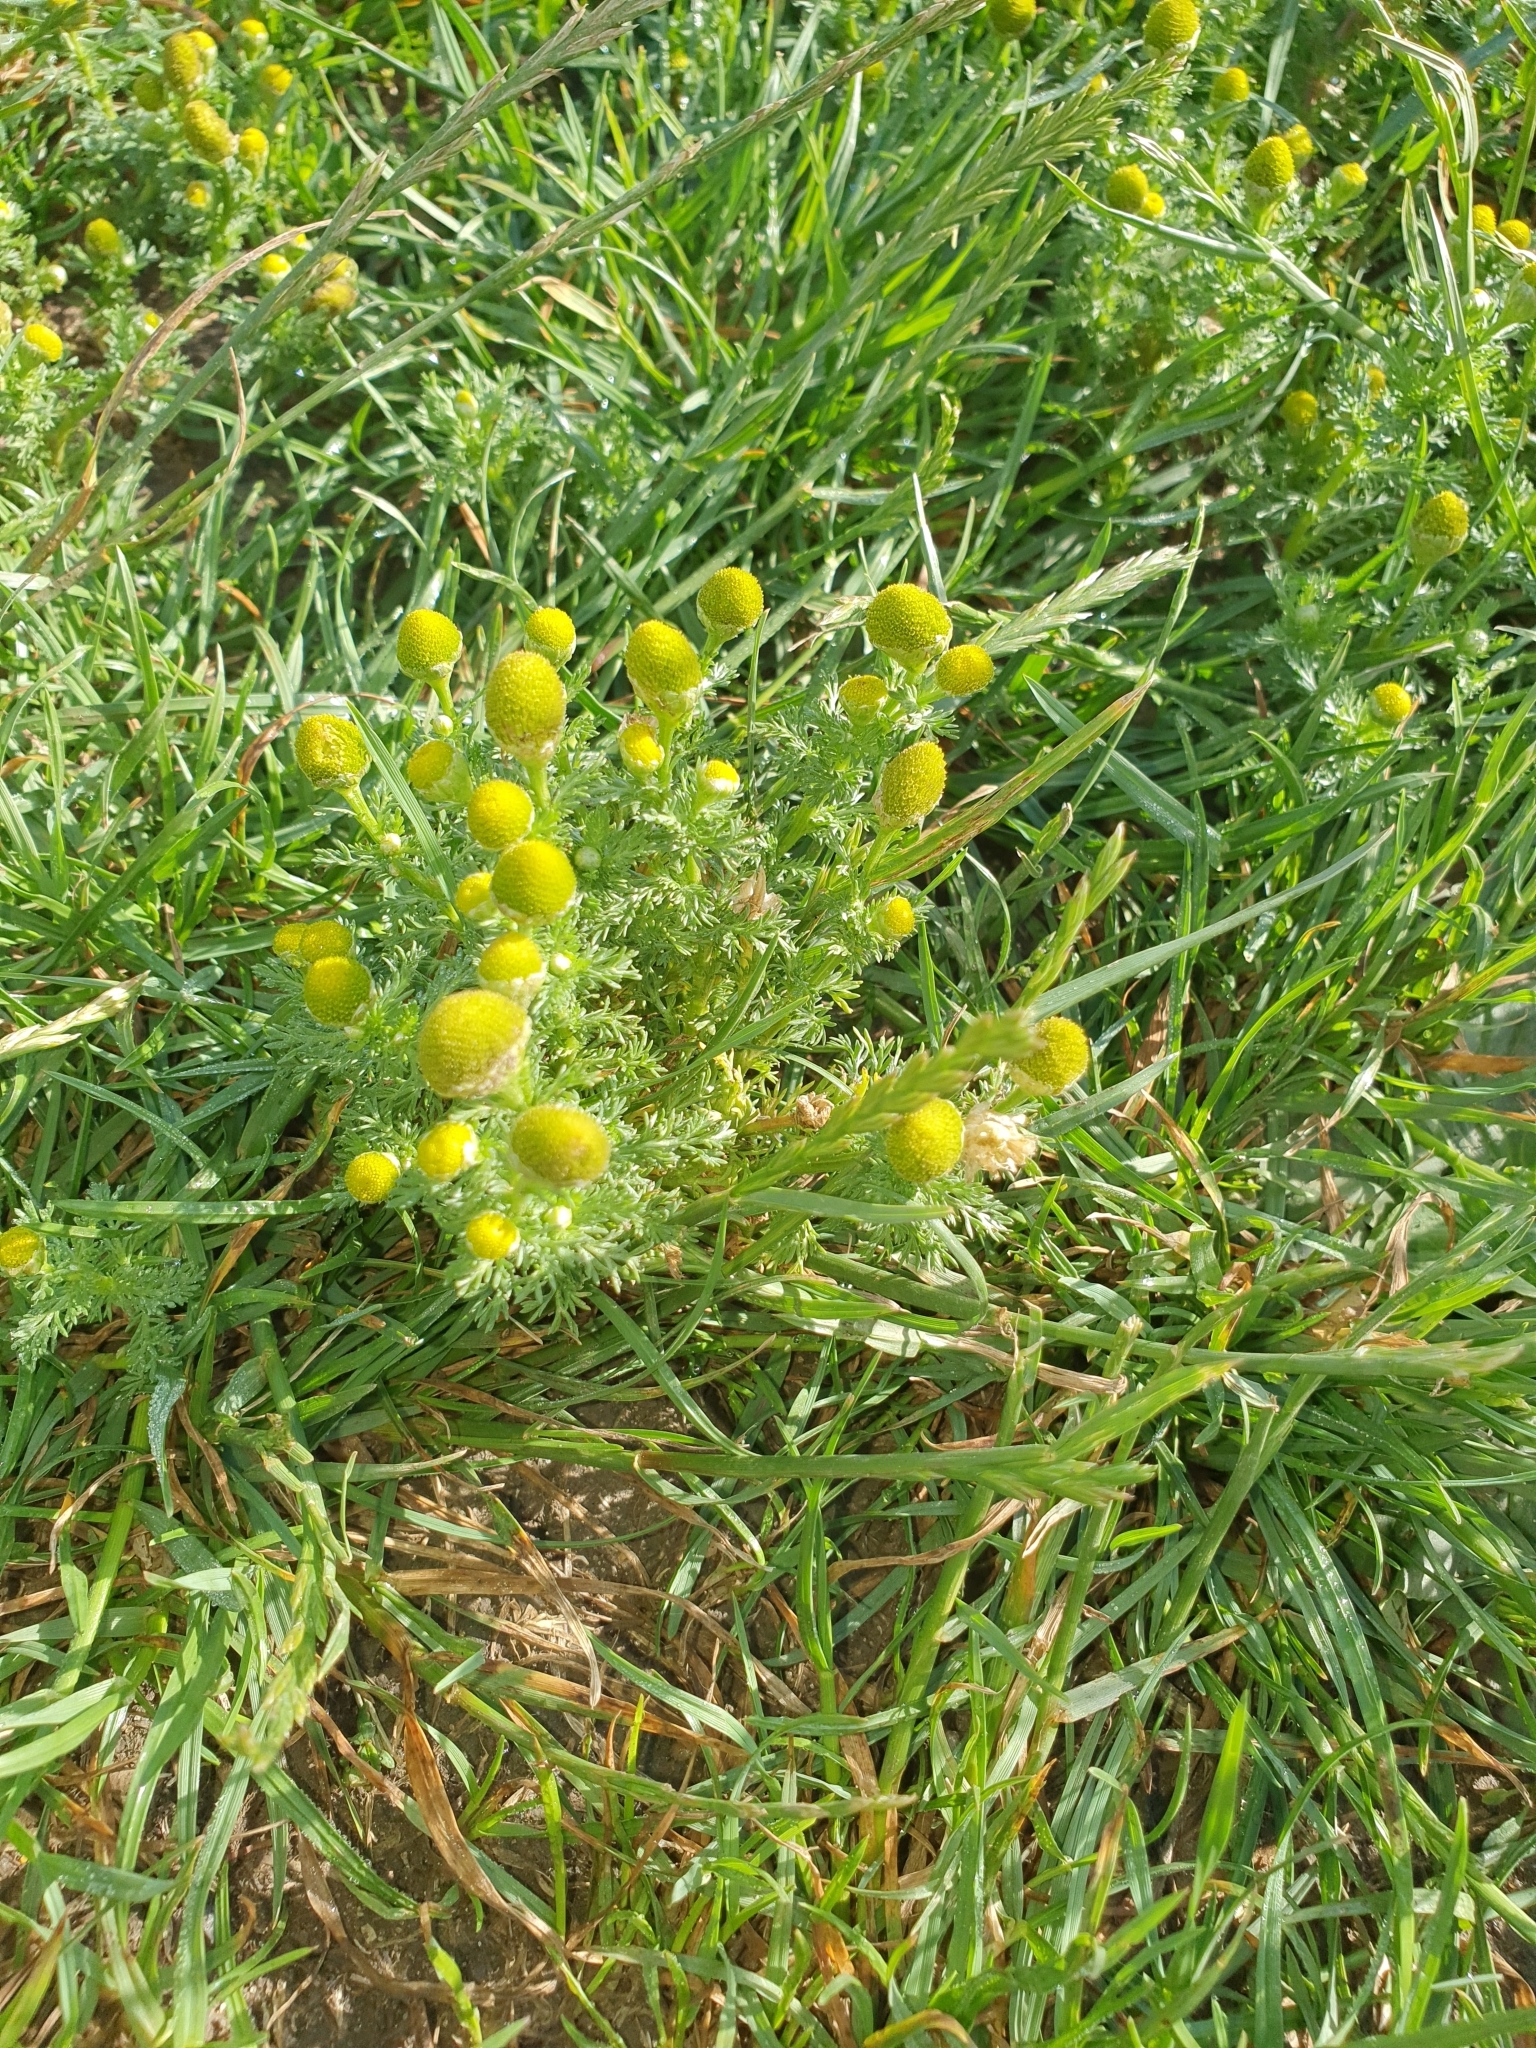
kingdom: Plantae
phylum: Tracheophyta
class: Magnoliopsida
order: Asterales
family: Asteraceae
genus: Matricaria
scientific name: Matricaria discoidea
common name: Disc mayweed
